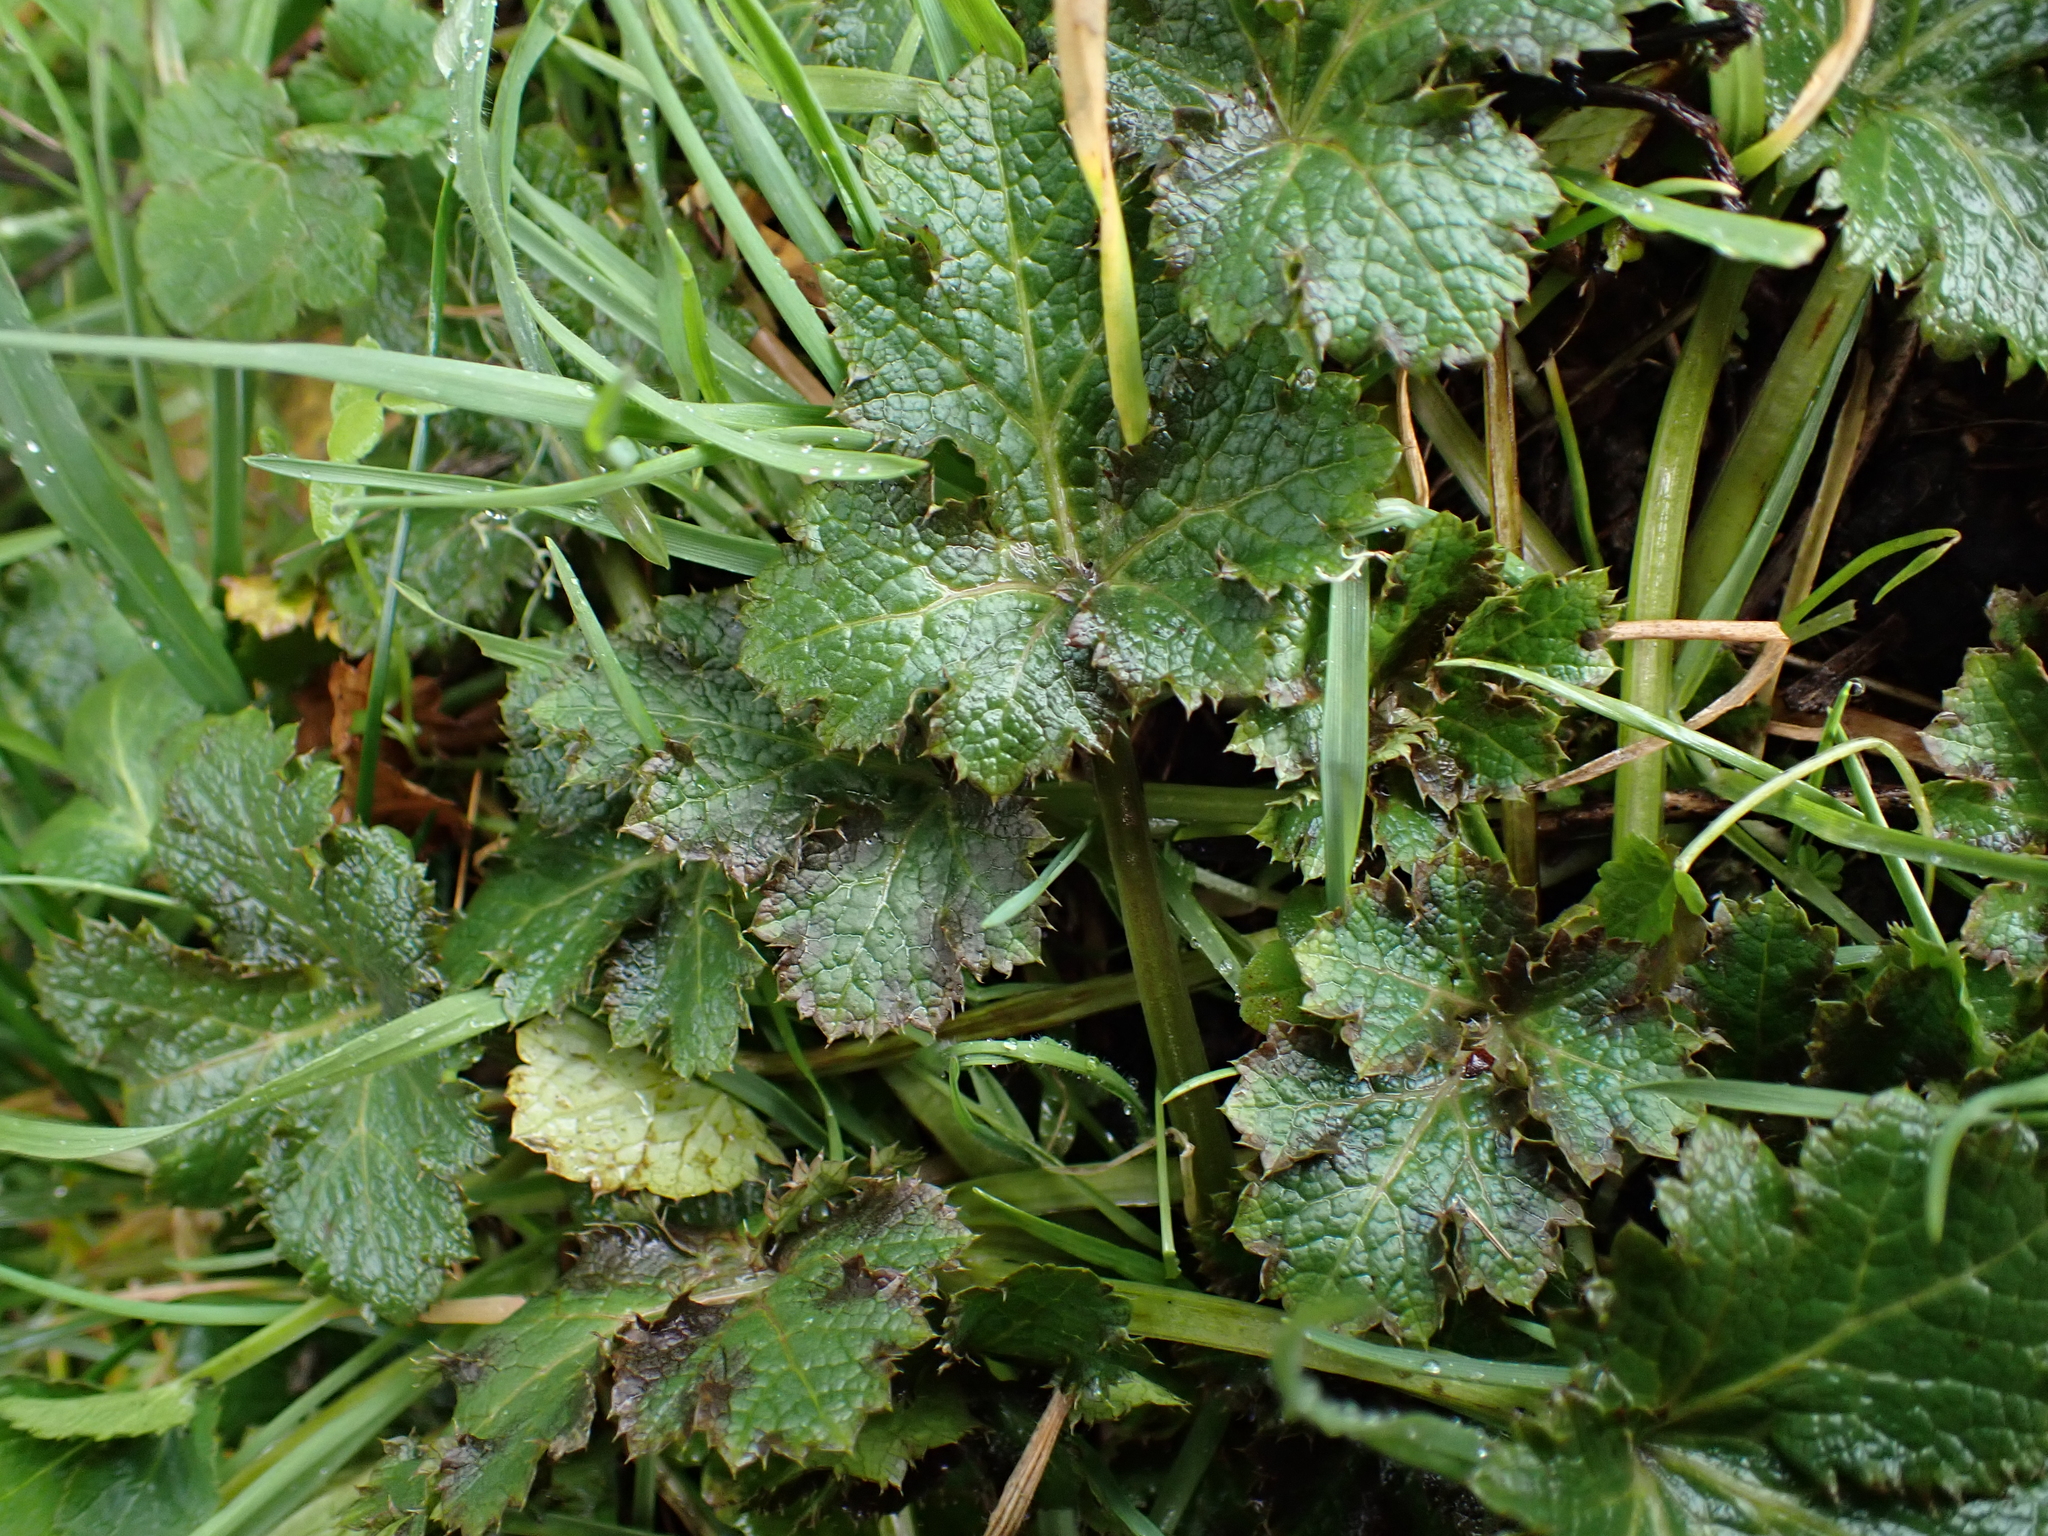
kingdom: Plantae
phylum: Tracheophyta
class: Magnoliopsida
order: Apiales
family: Apiaceae
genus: Sanicula
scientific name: Sanicula crassicaulis
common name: Western snakeroot
